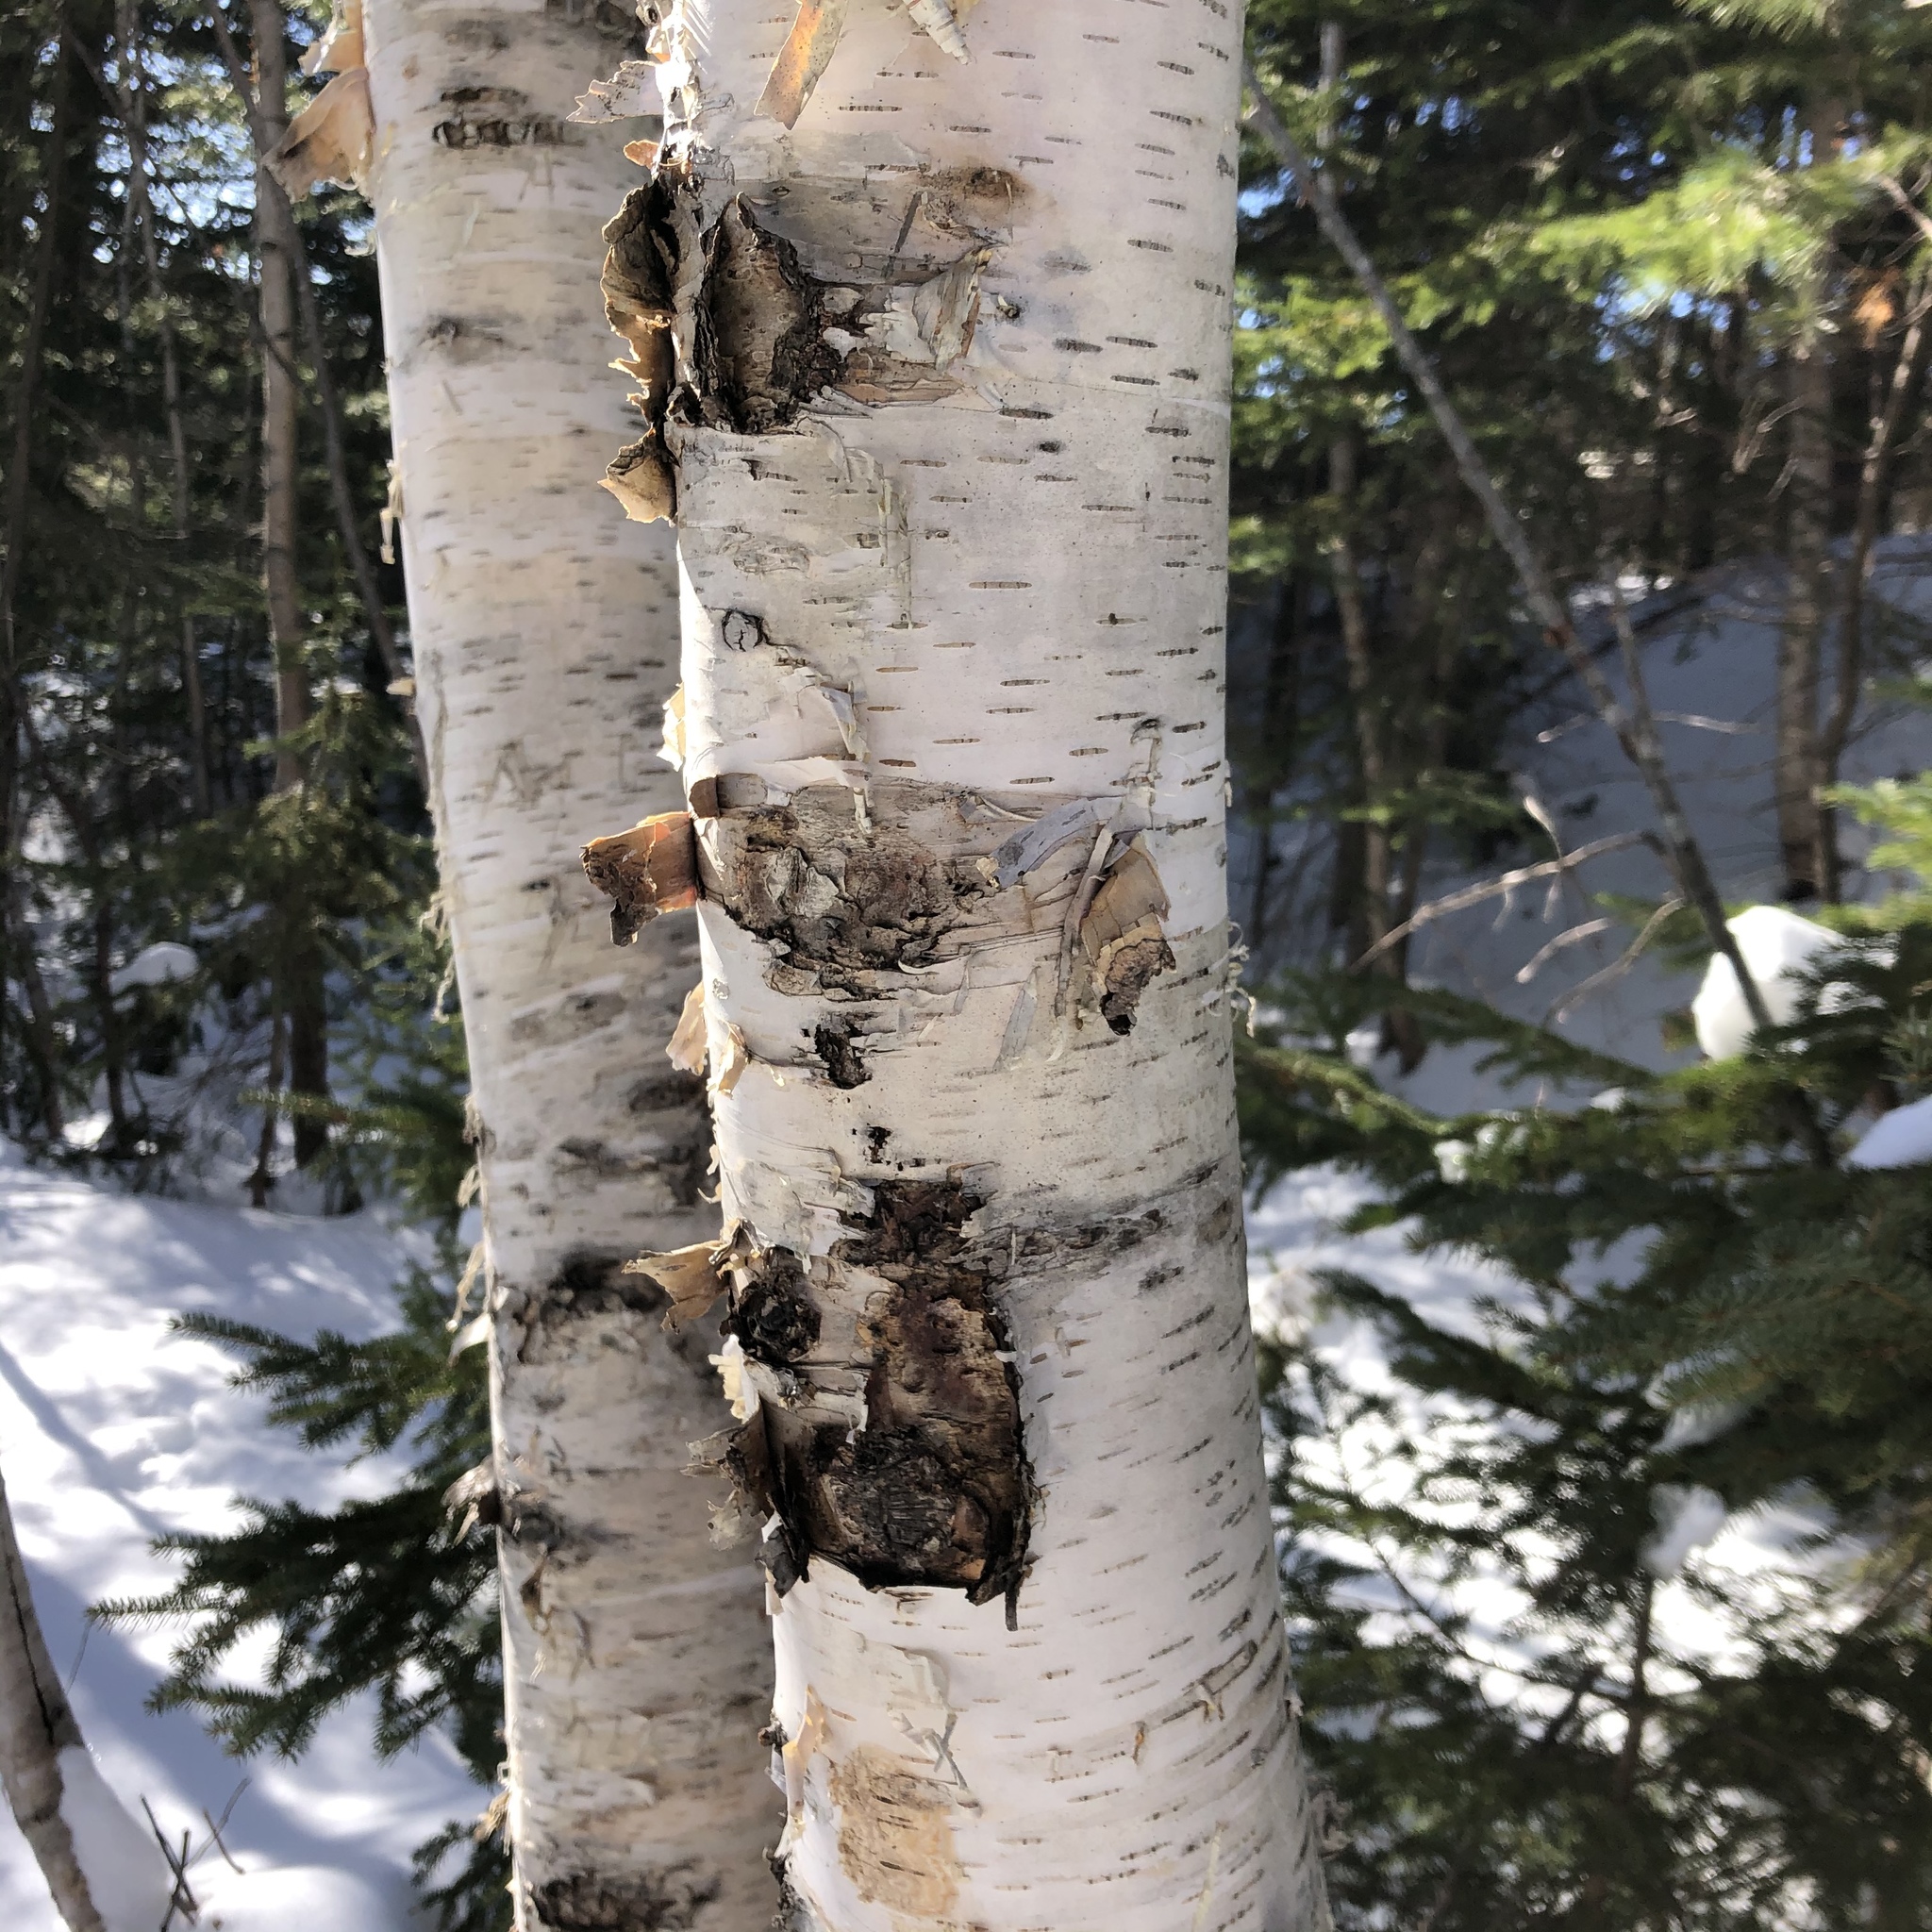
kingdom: Plantae
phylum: Tracheophyta
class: Magnoliopsida
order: Fagales
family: Betulaceae
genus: Betula
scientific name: Betula papyrifera
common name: Paper birch
